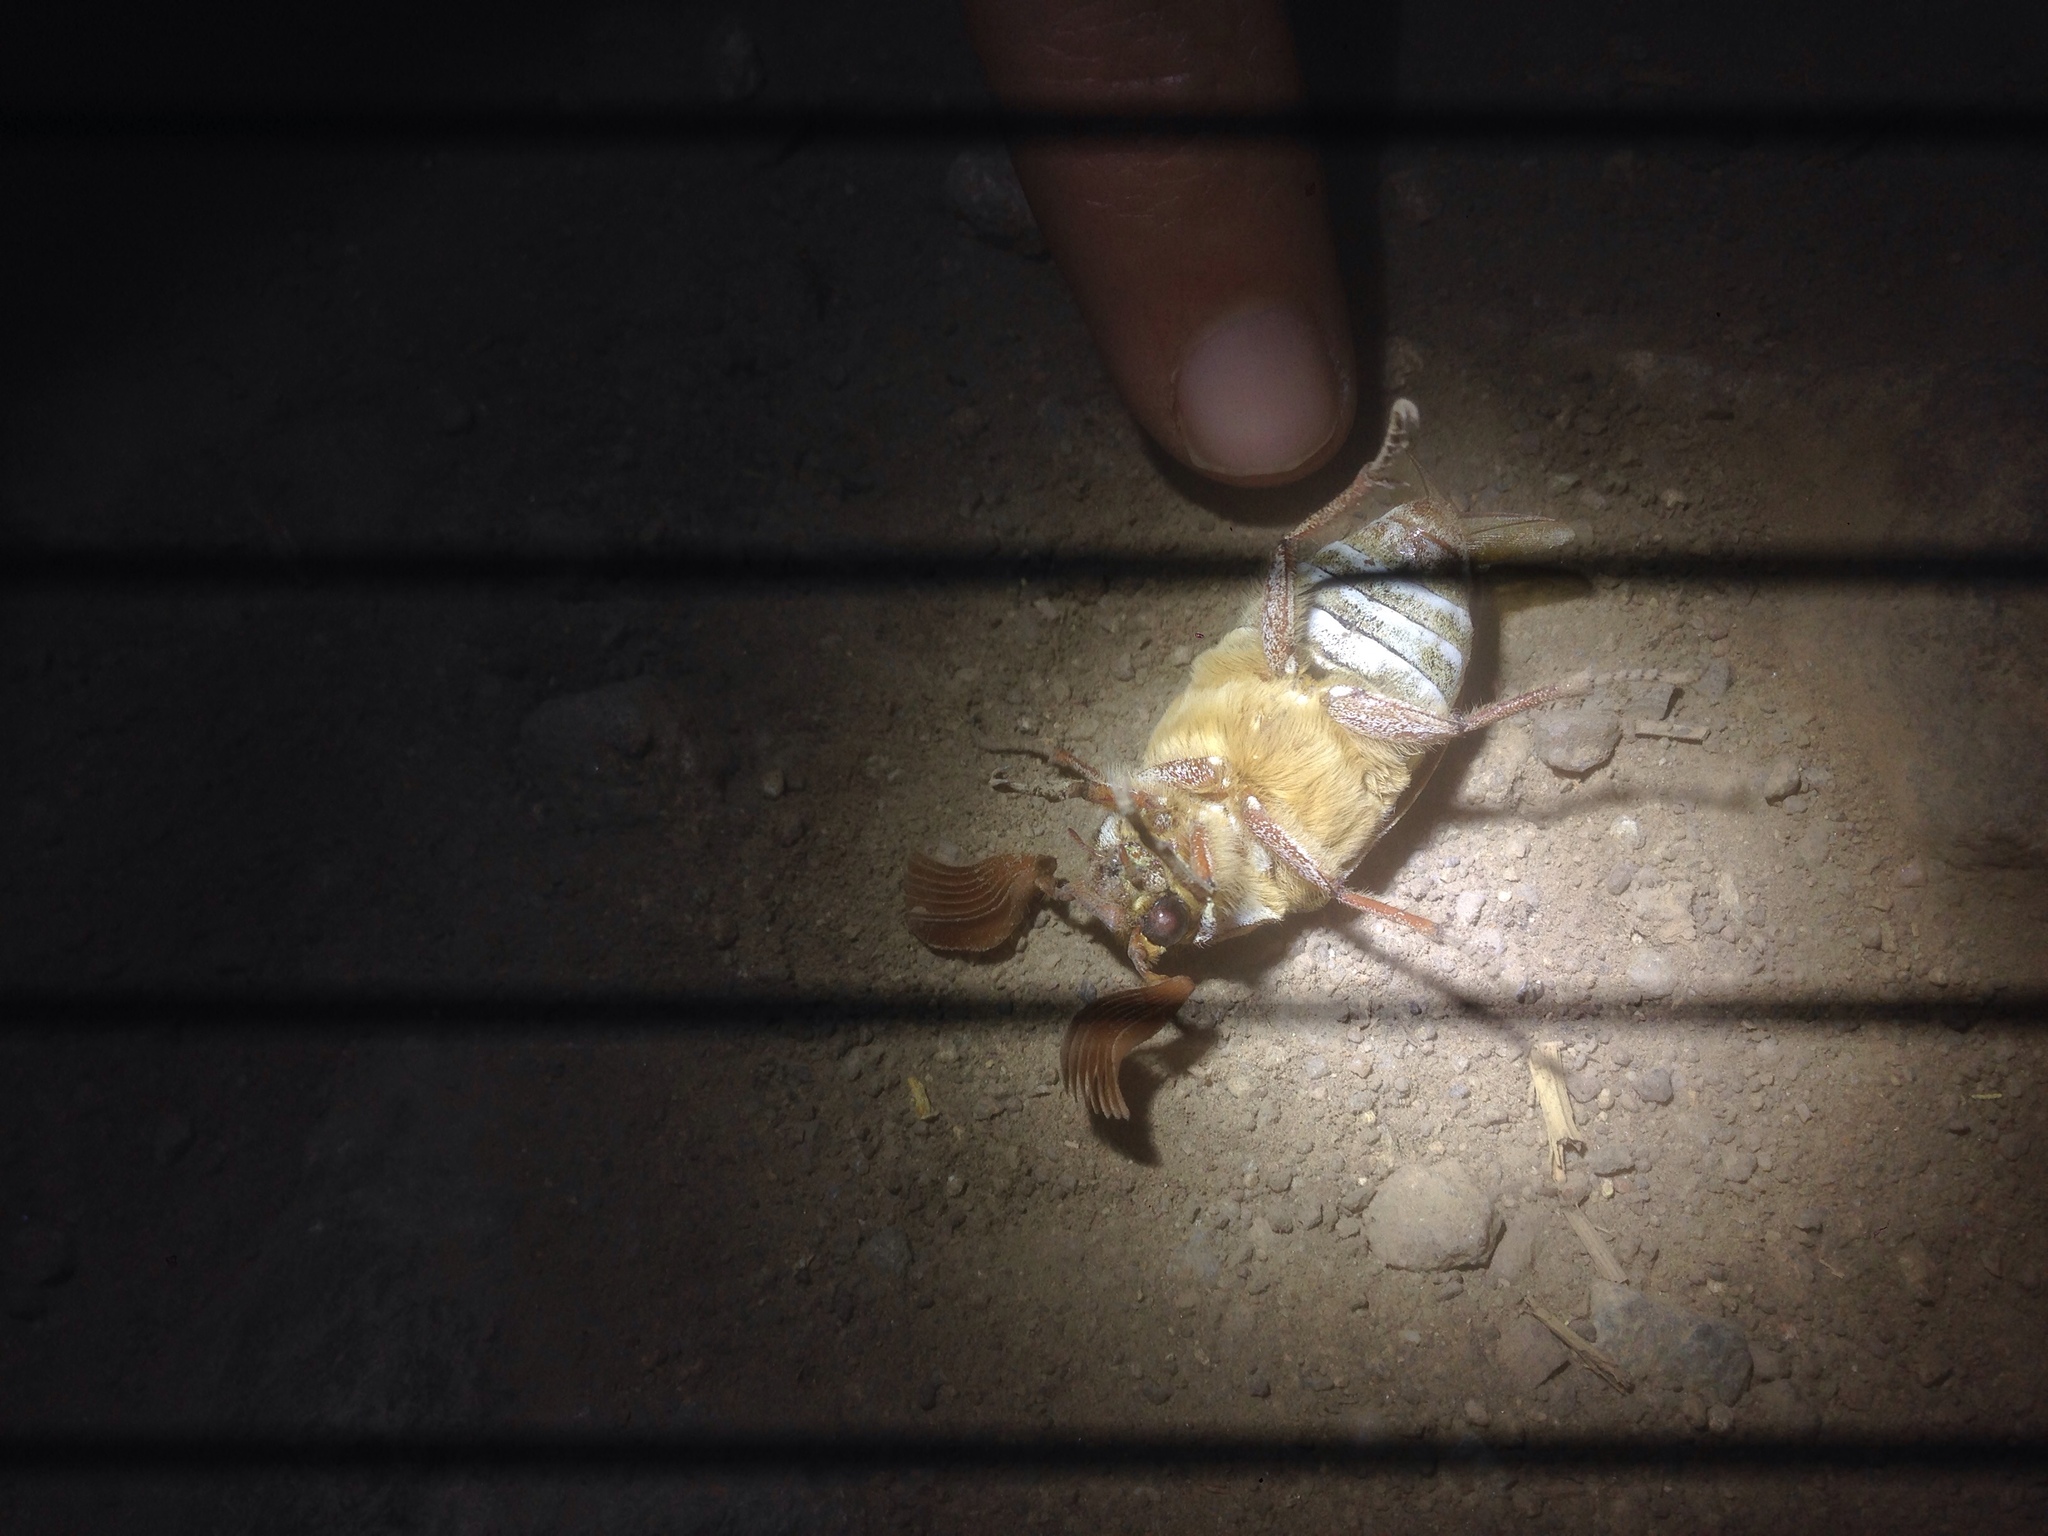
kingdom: Animalia
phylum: Arthropoda
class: Insecta
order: Coleoptera
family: Scarabaeidae
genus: Polyphylla
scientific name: Polyphylla decemlineata
